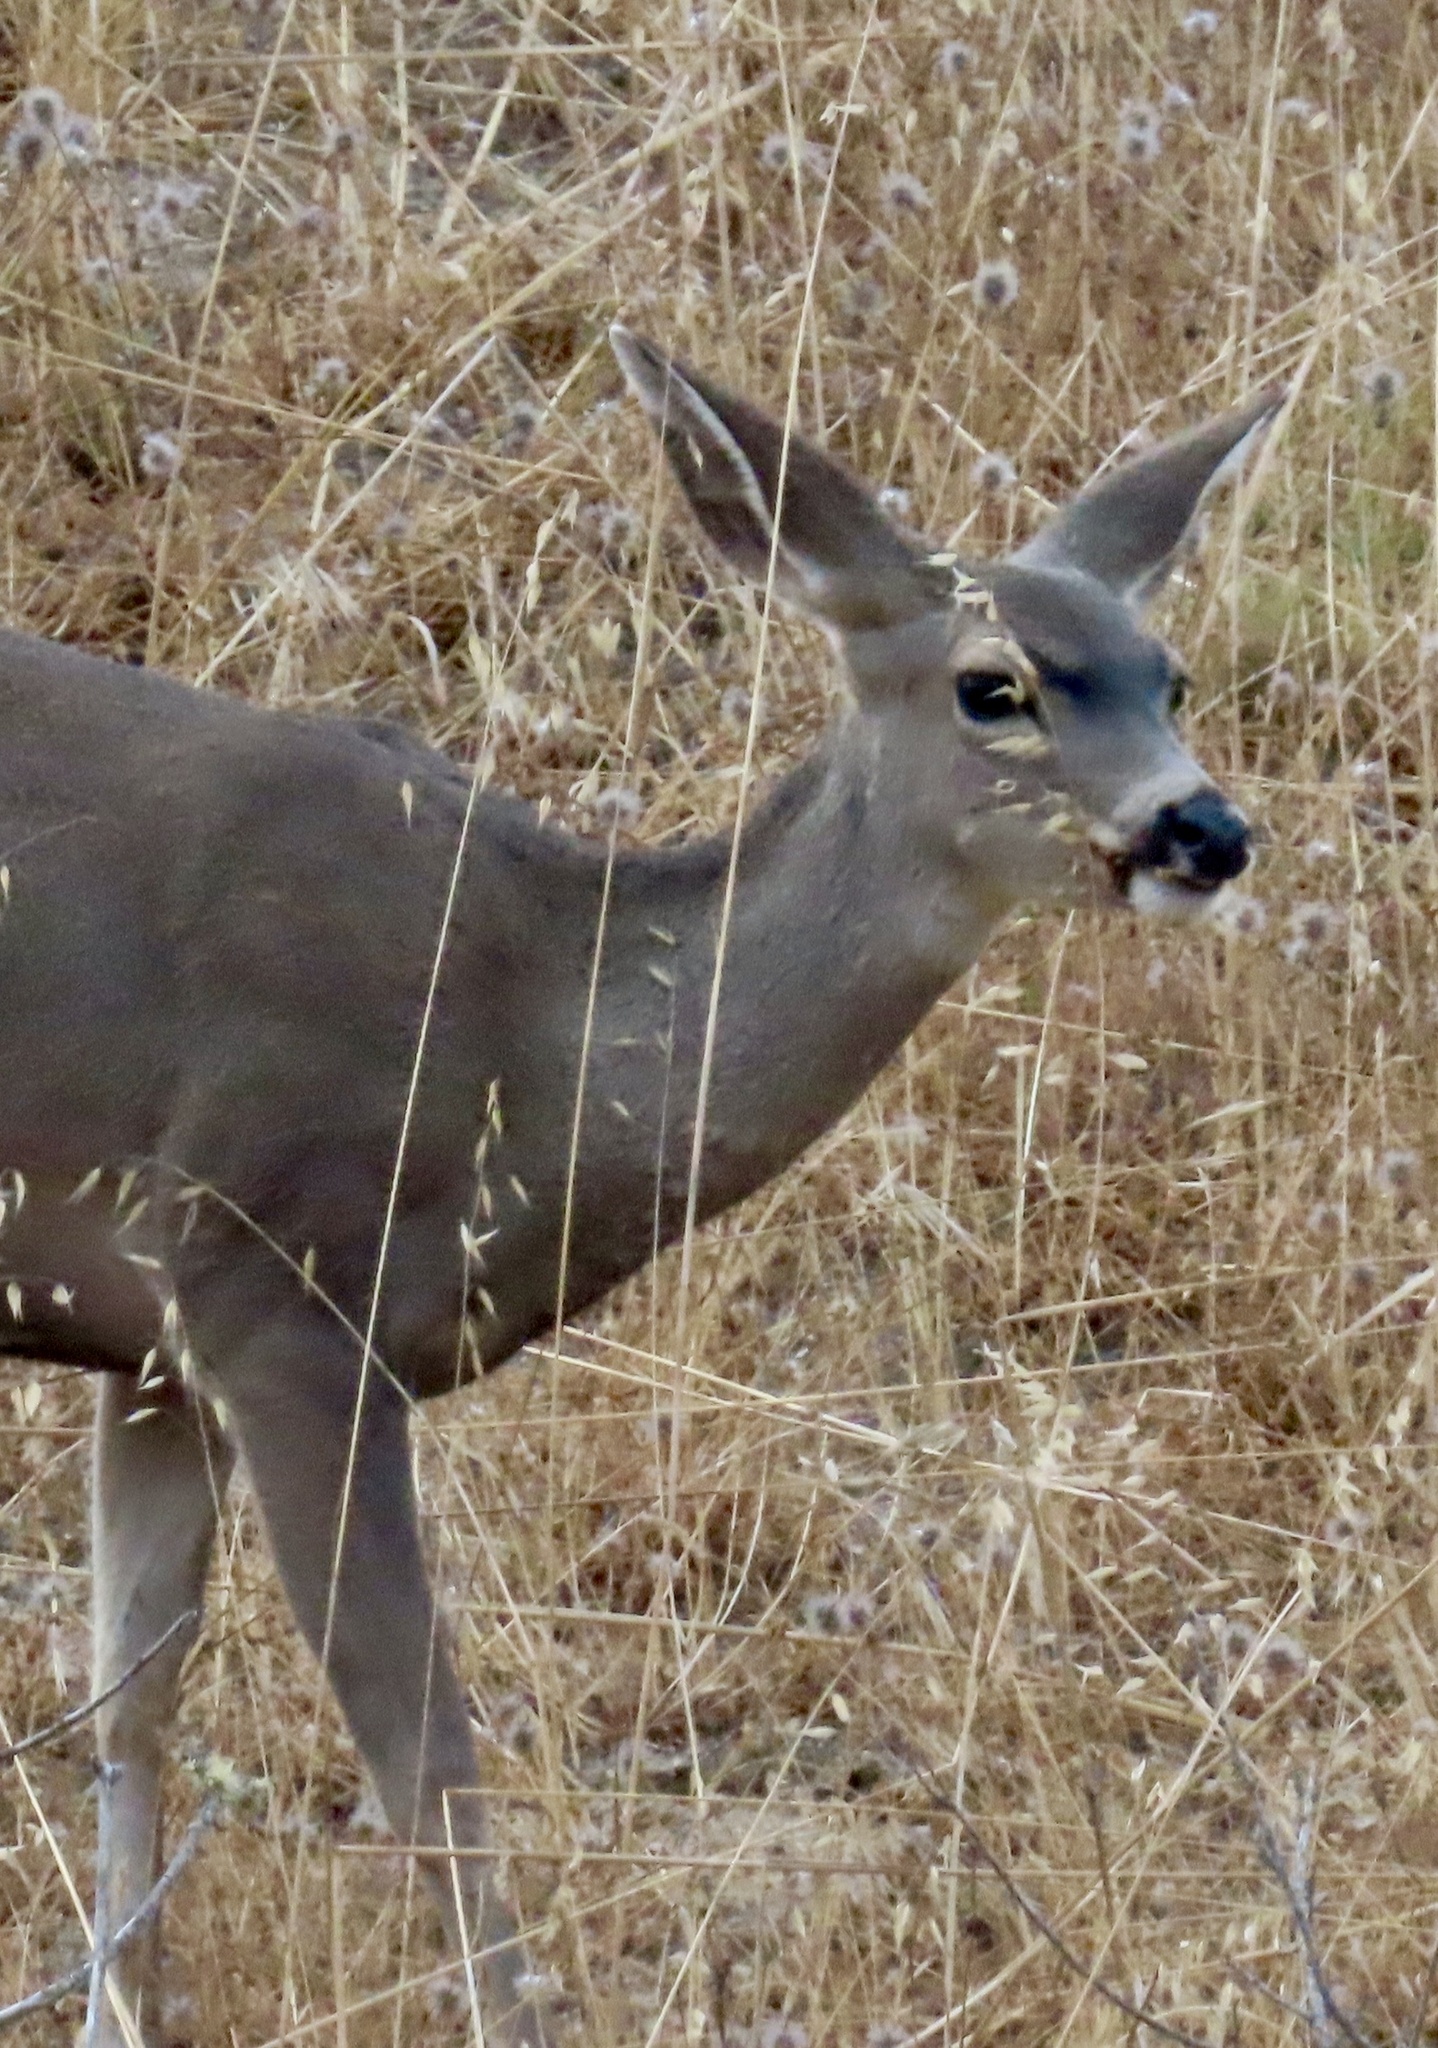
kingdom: Animalia
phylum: Chordata
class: Mammalia
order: Artiodactyla
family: Cervidae
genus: Odocoileus
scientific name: Odocoileus hemionus
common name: Mule deer
